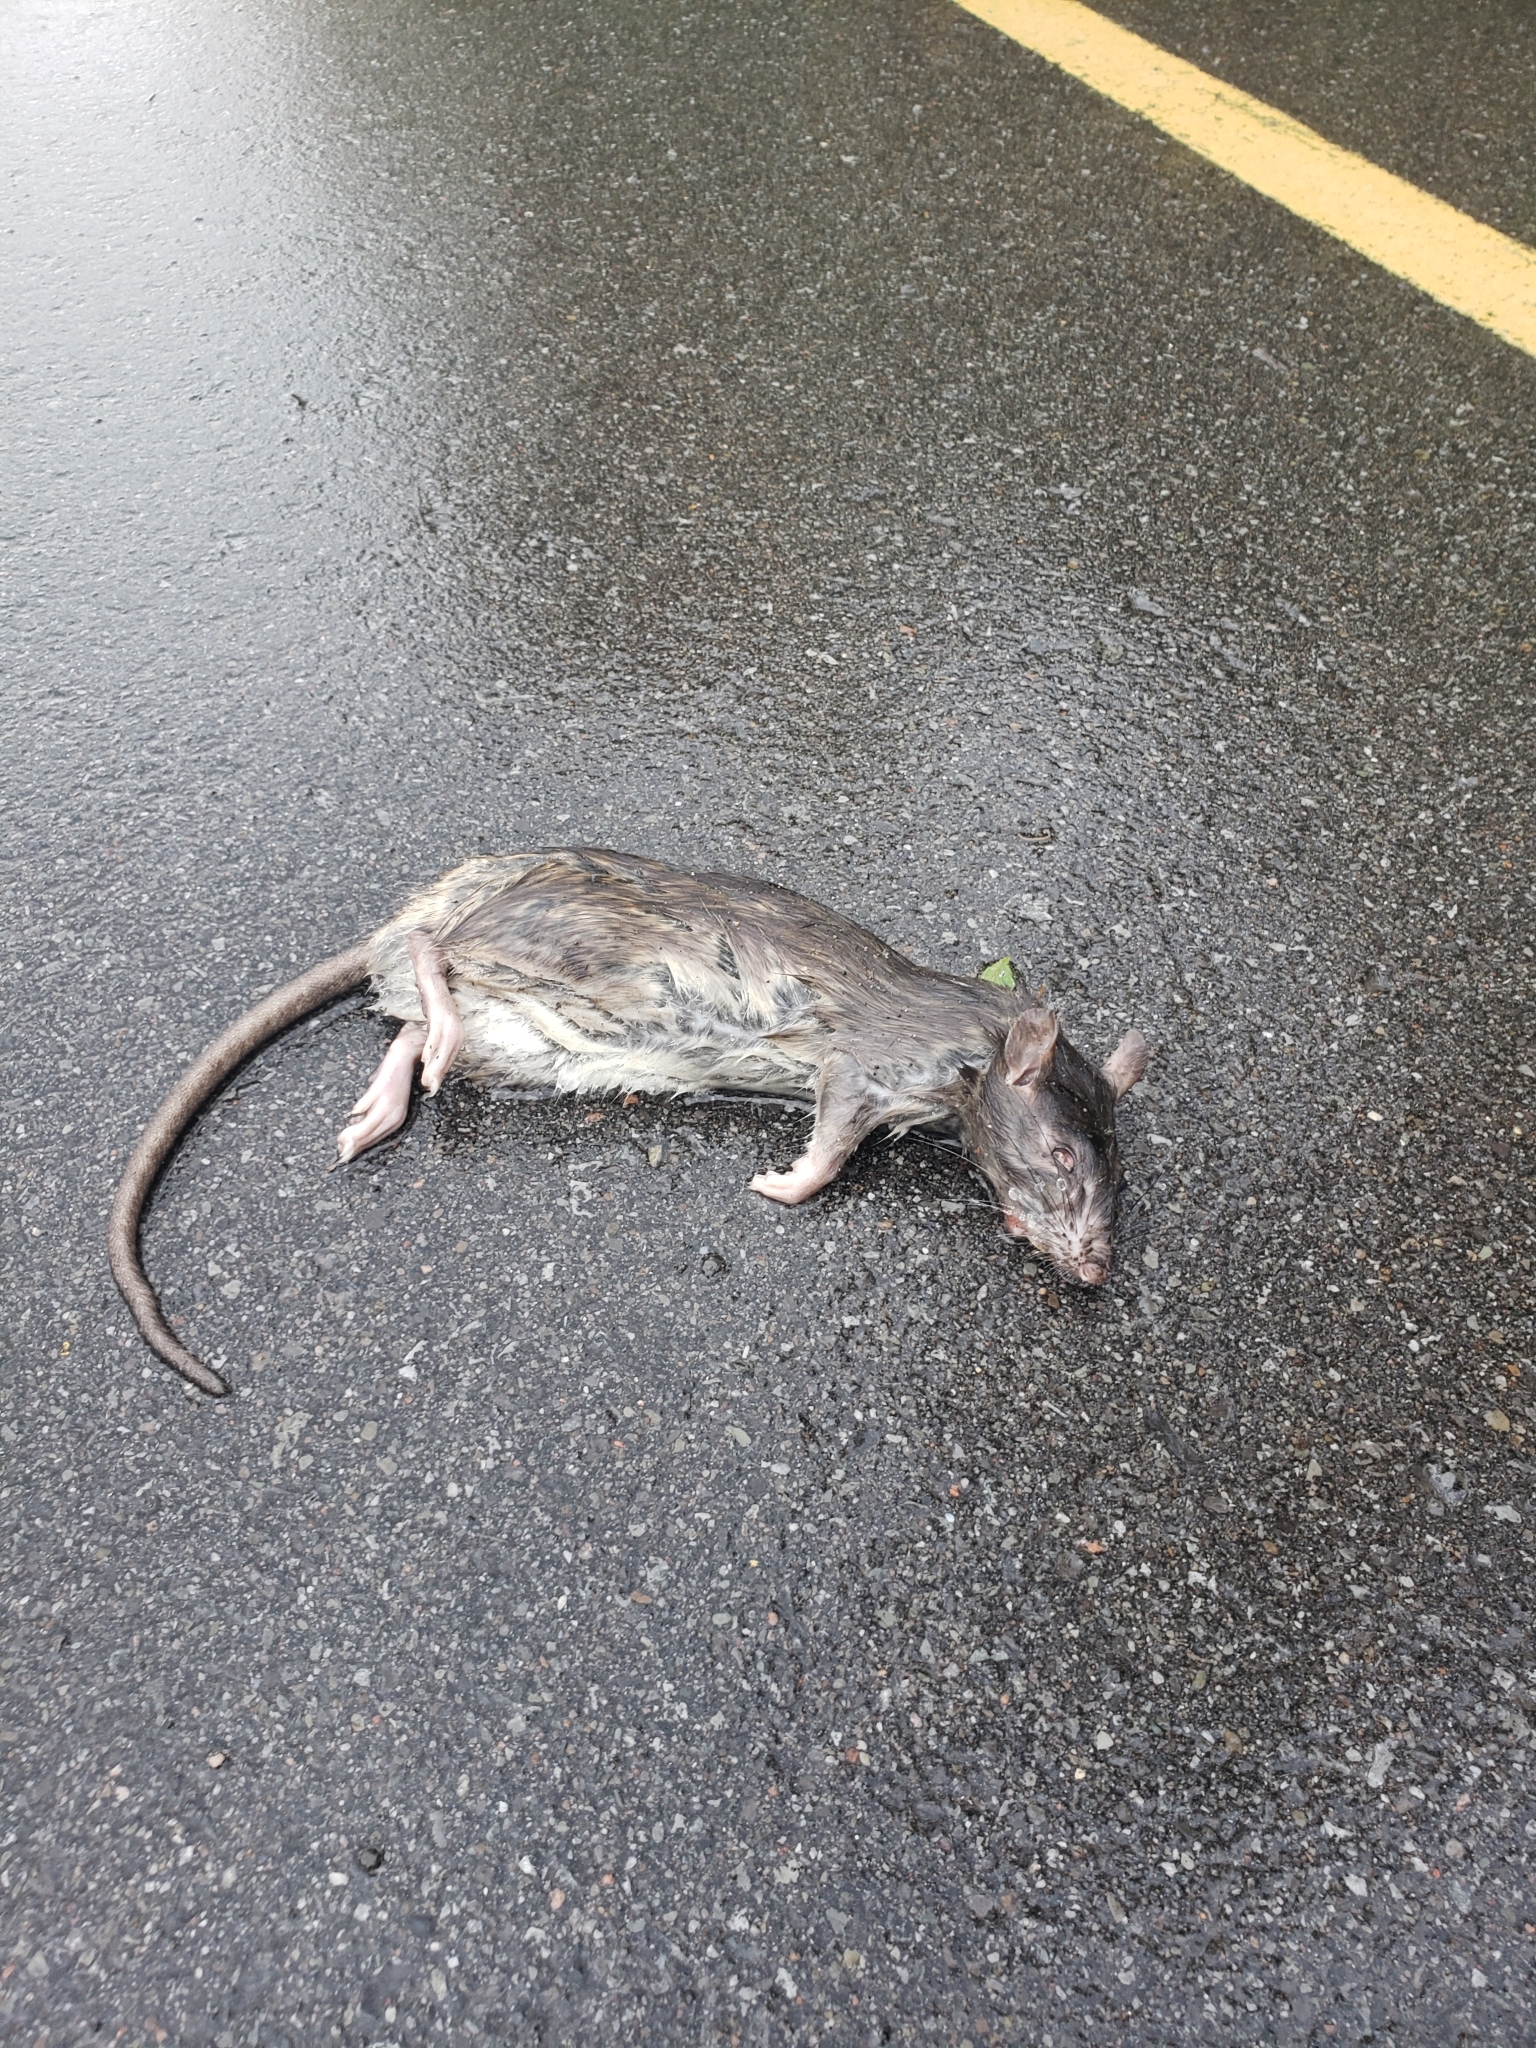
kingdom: Animalia
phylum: Chordata
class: Mammalia
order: Rodentia
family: Muridae
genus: Rattus
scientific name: Rattus norvegicus
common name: Brown rat
